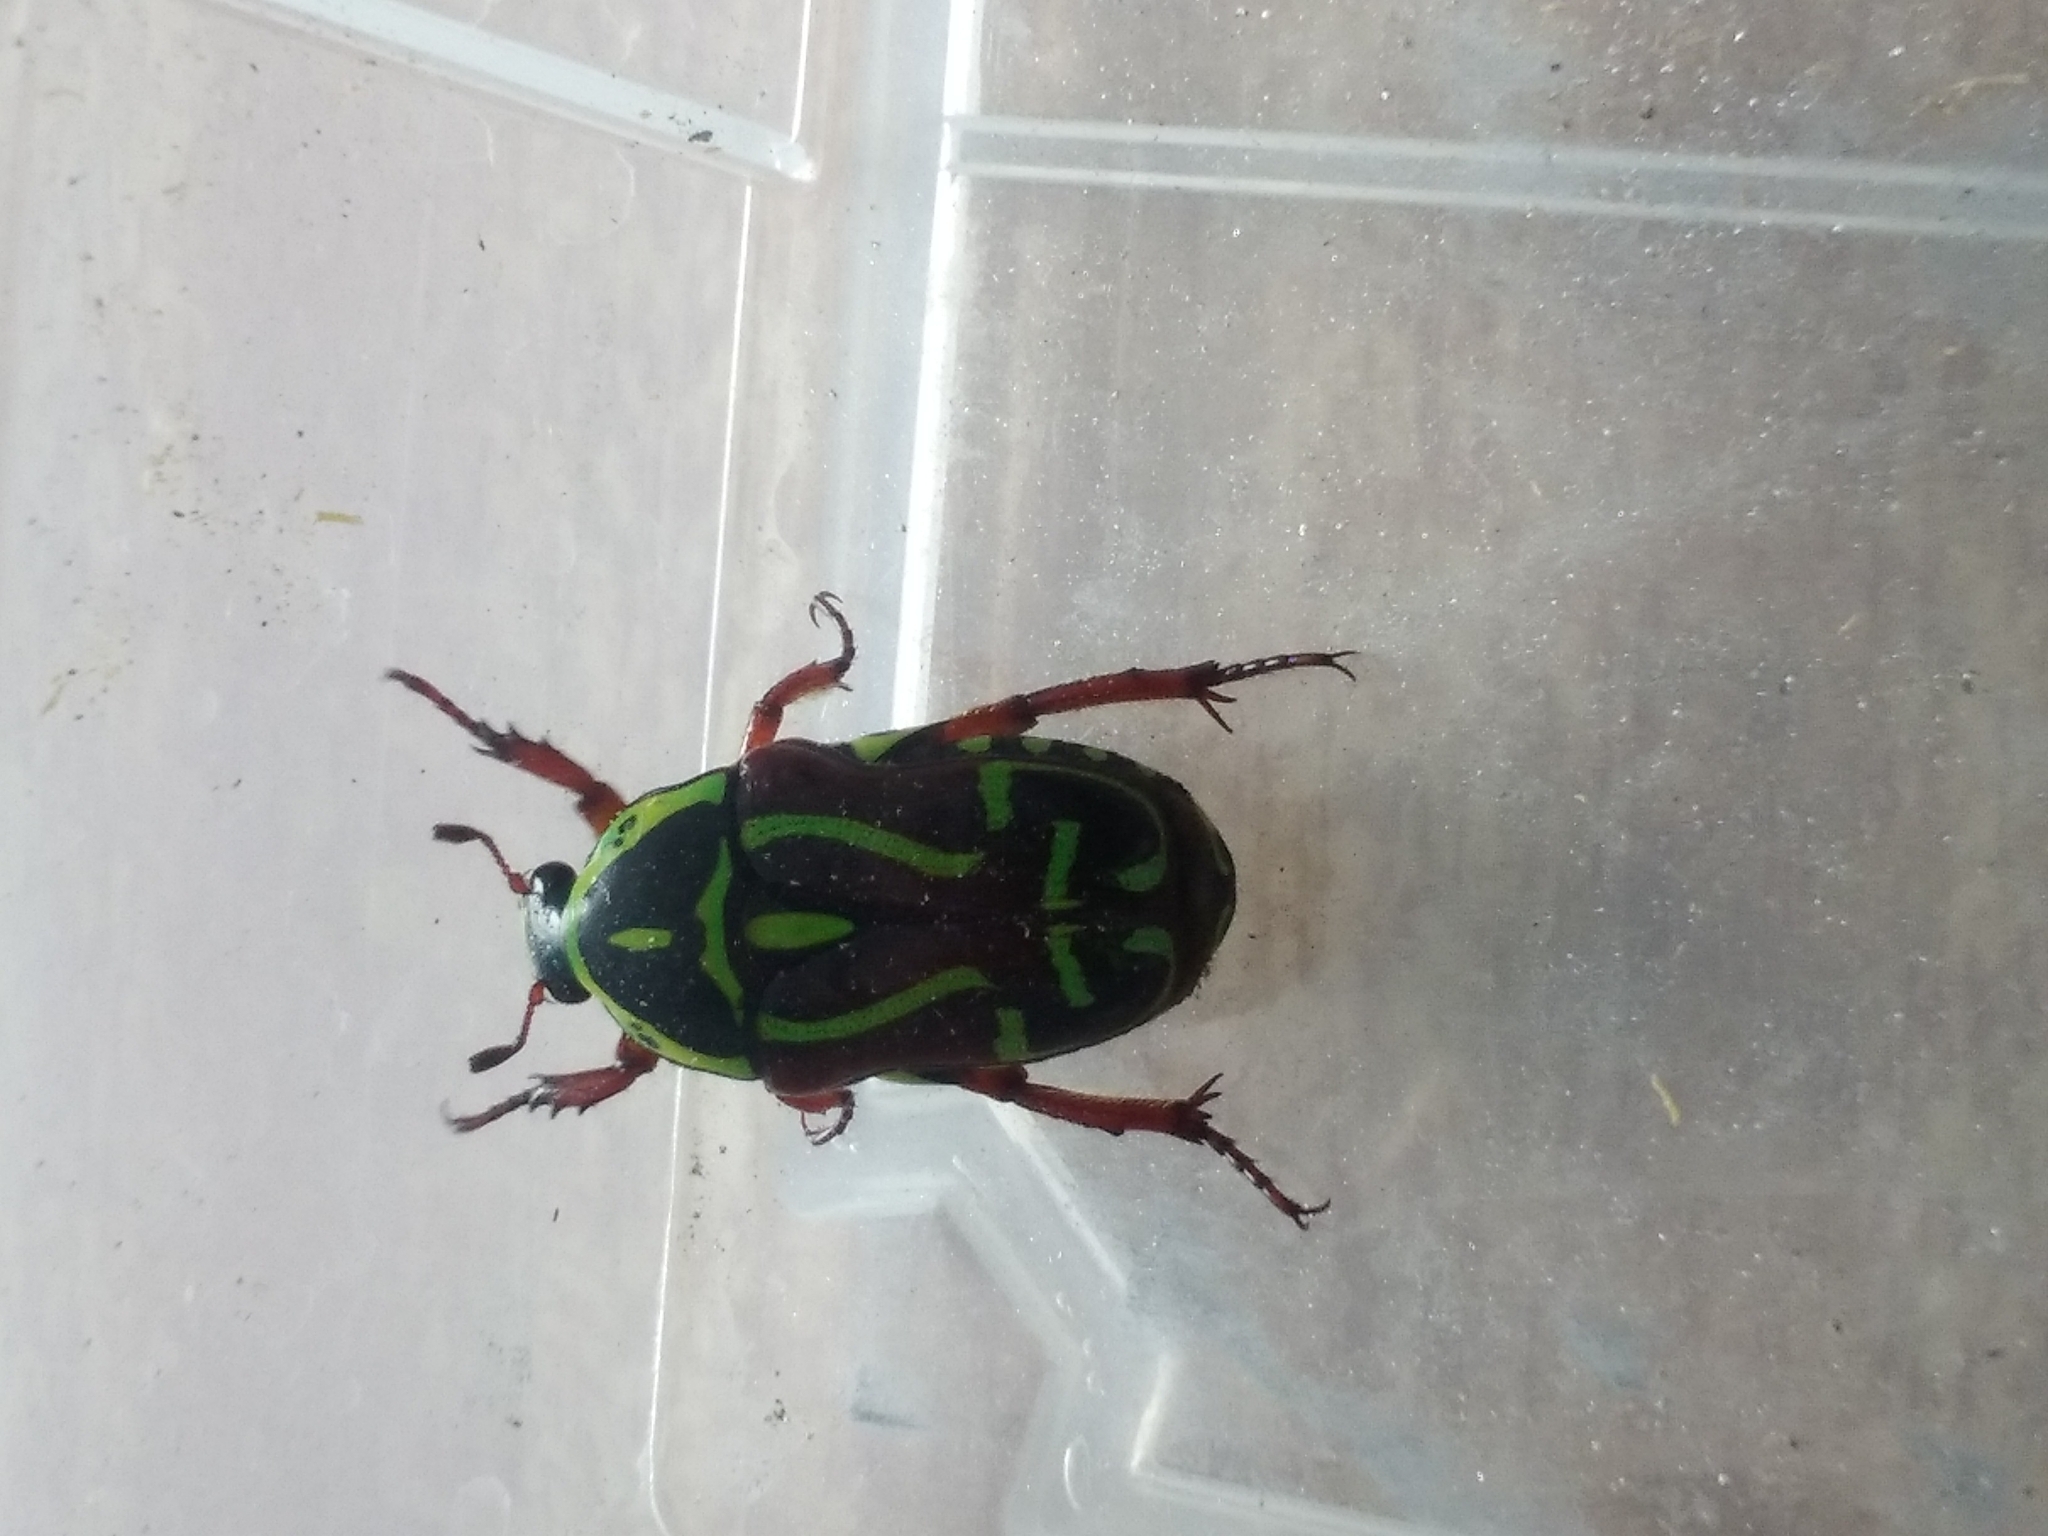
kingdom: Animalia
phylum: Arthropoda
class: Insecta
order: Coleoptera
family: Scarabaeidae
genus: Eupoecila
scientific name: Eupoecila australasiae
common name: Fiddler beetle
